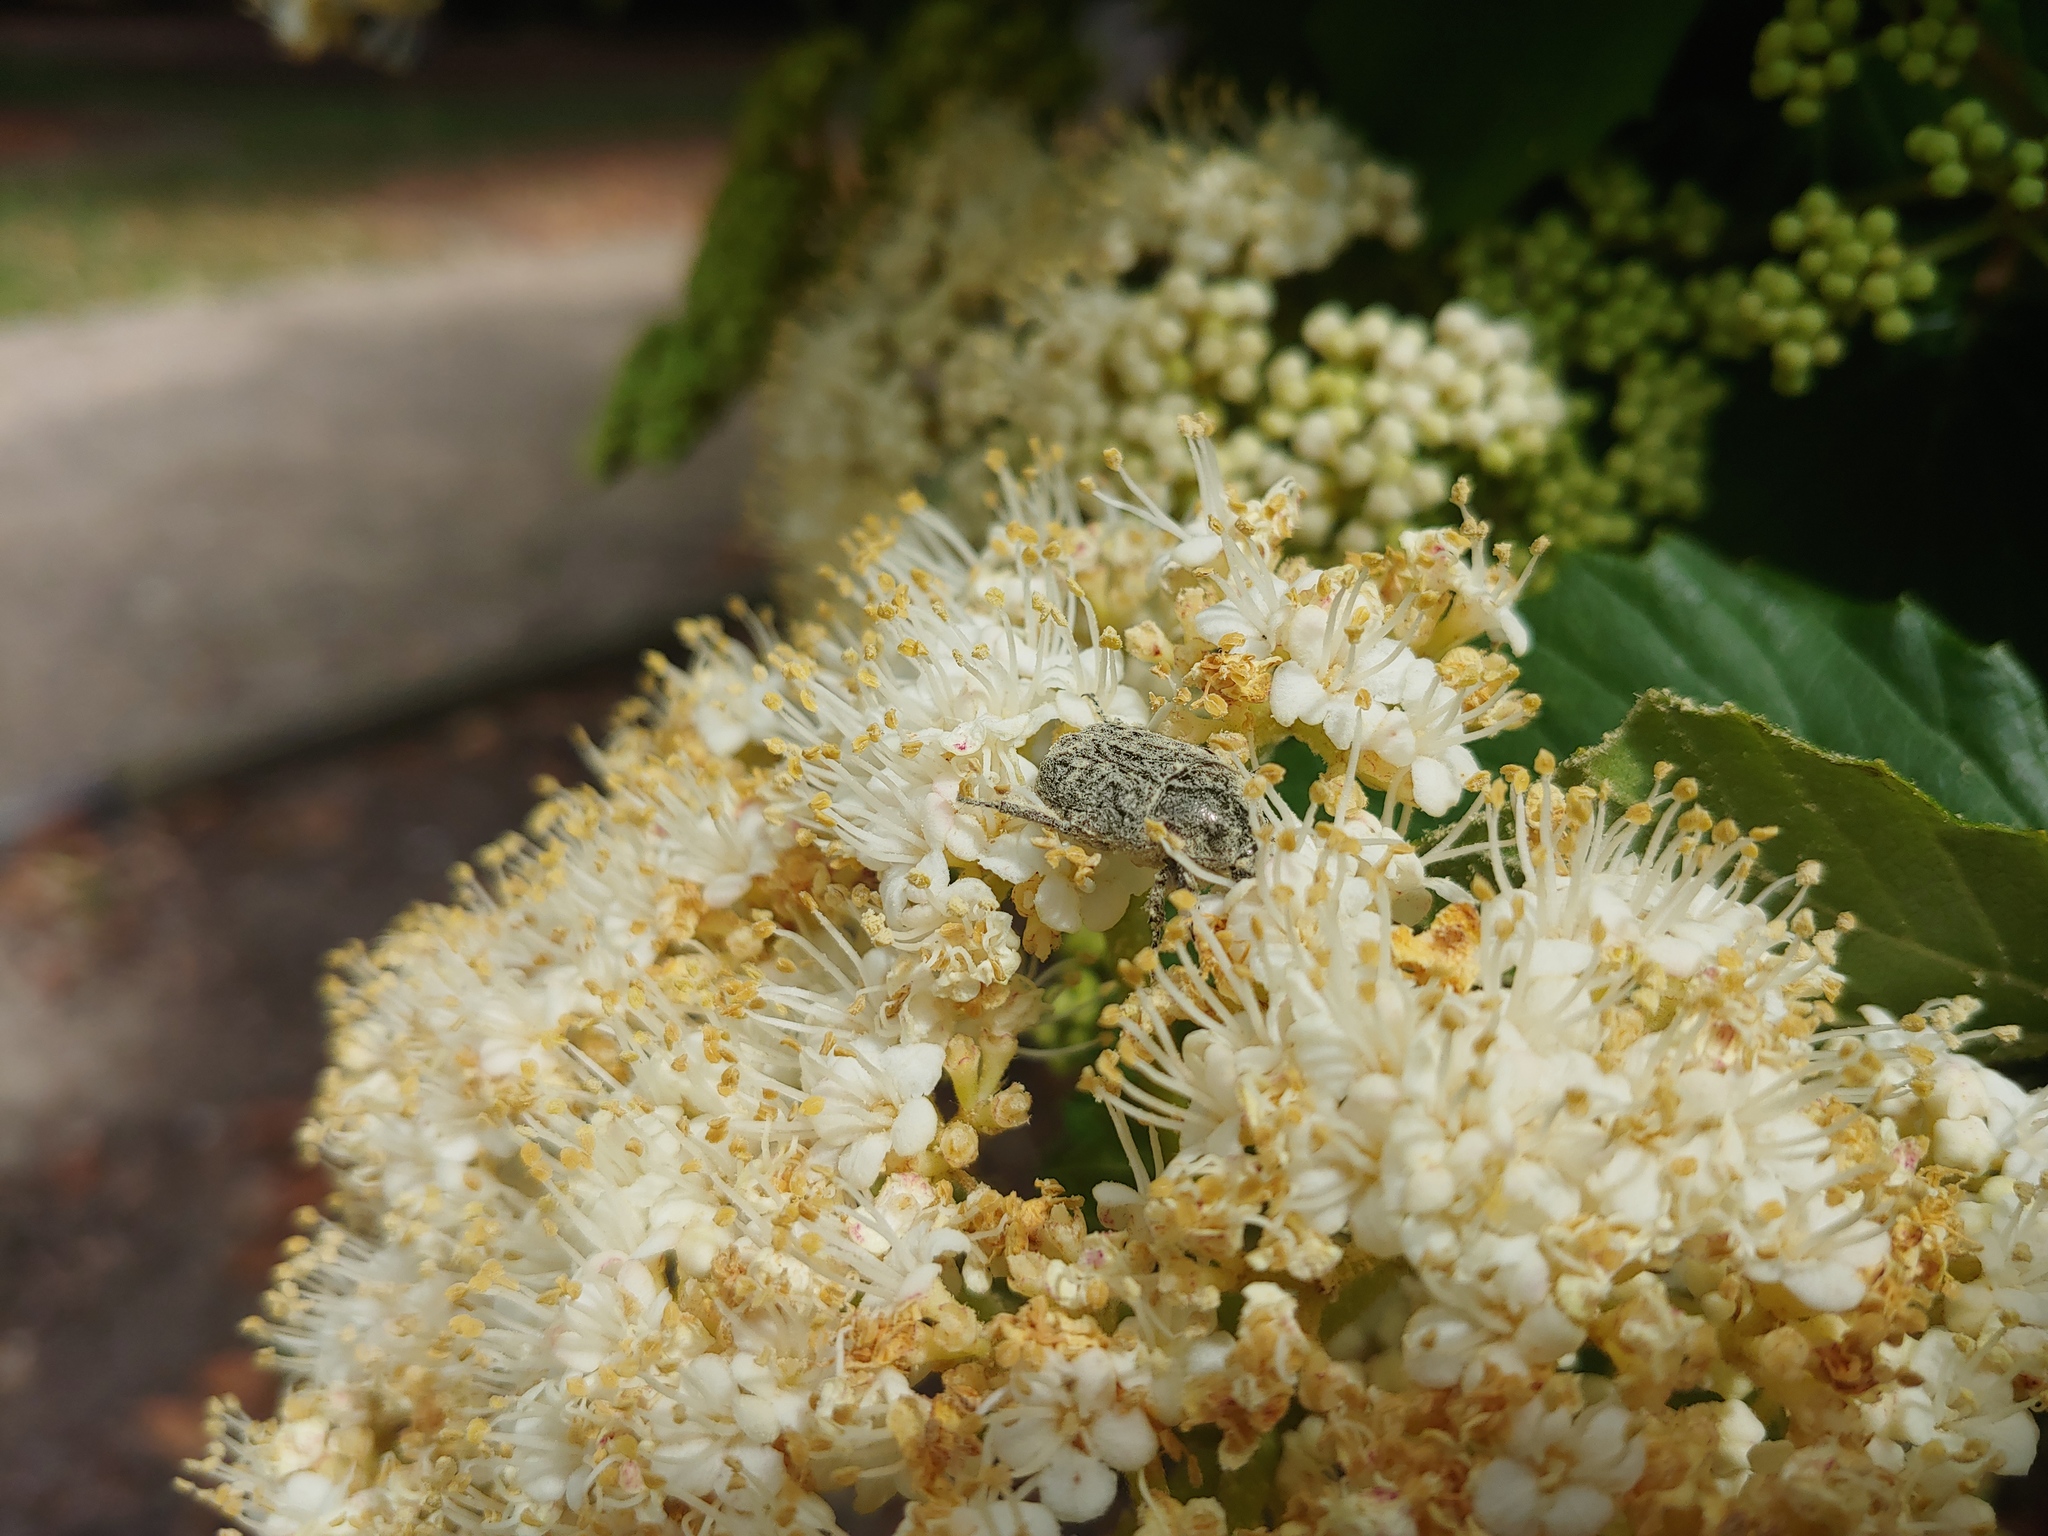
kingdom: Animalia
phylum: Arthropoda
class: Insecta
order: Coleoptera
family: Scarabaeidae
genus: Euphoria
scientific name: Euphoria sepulcralis
